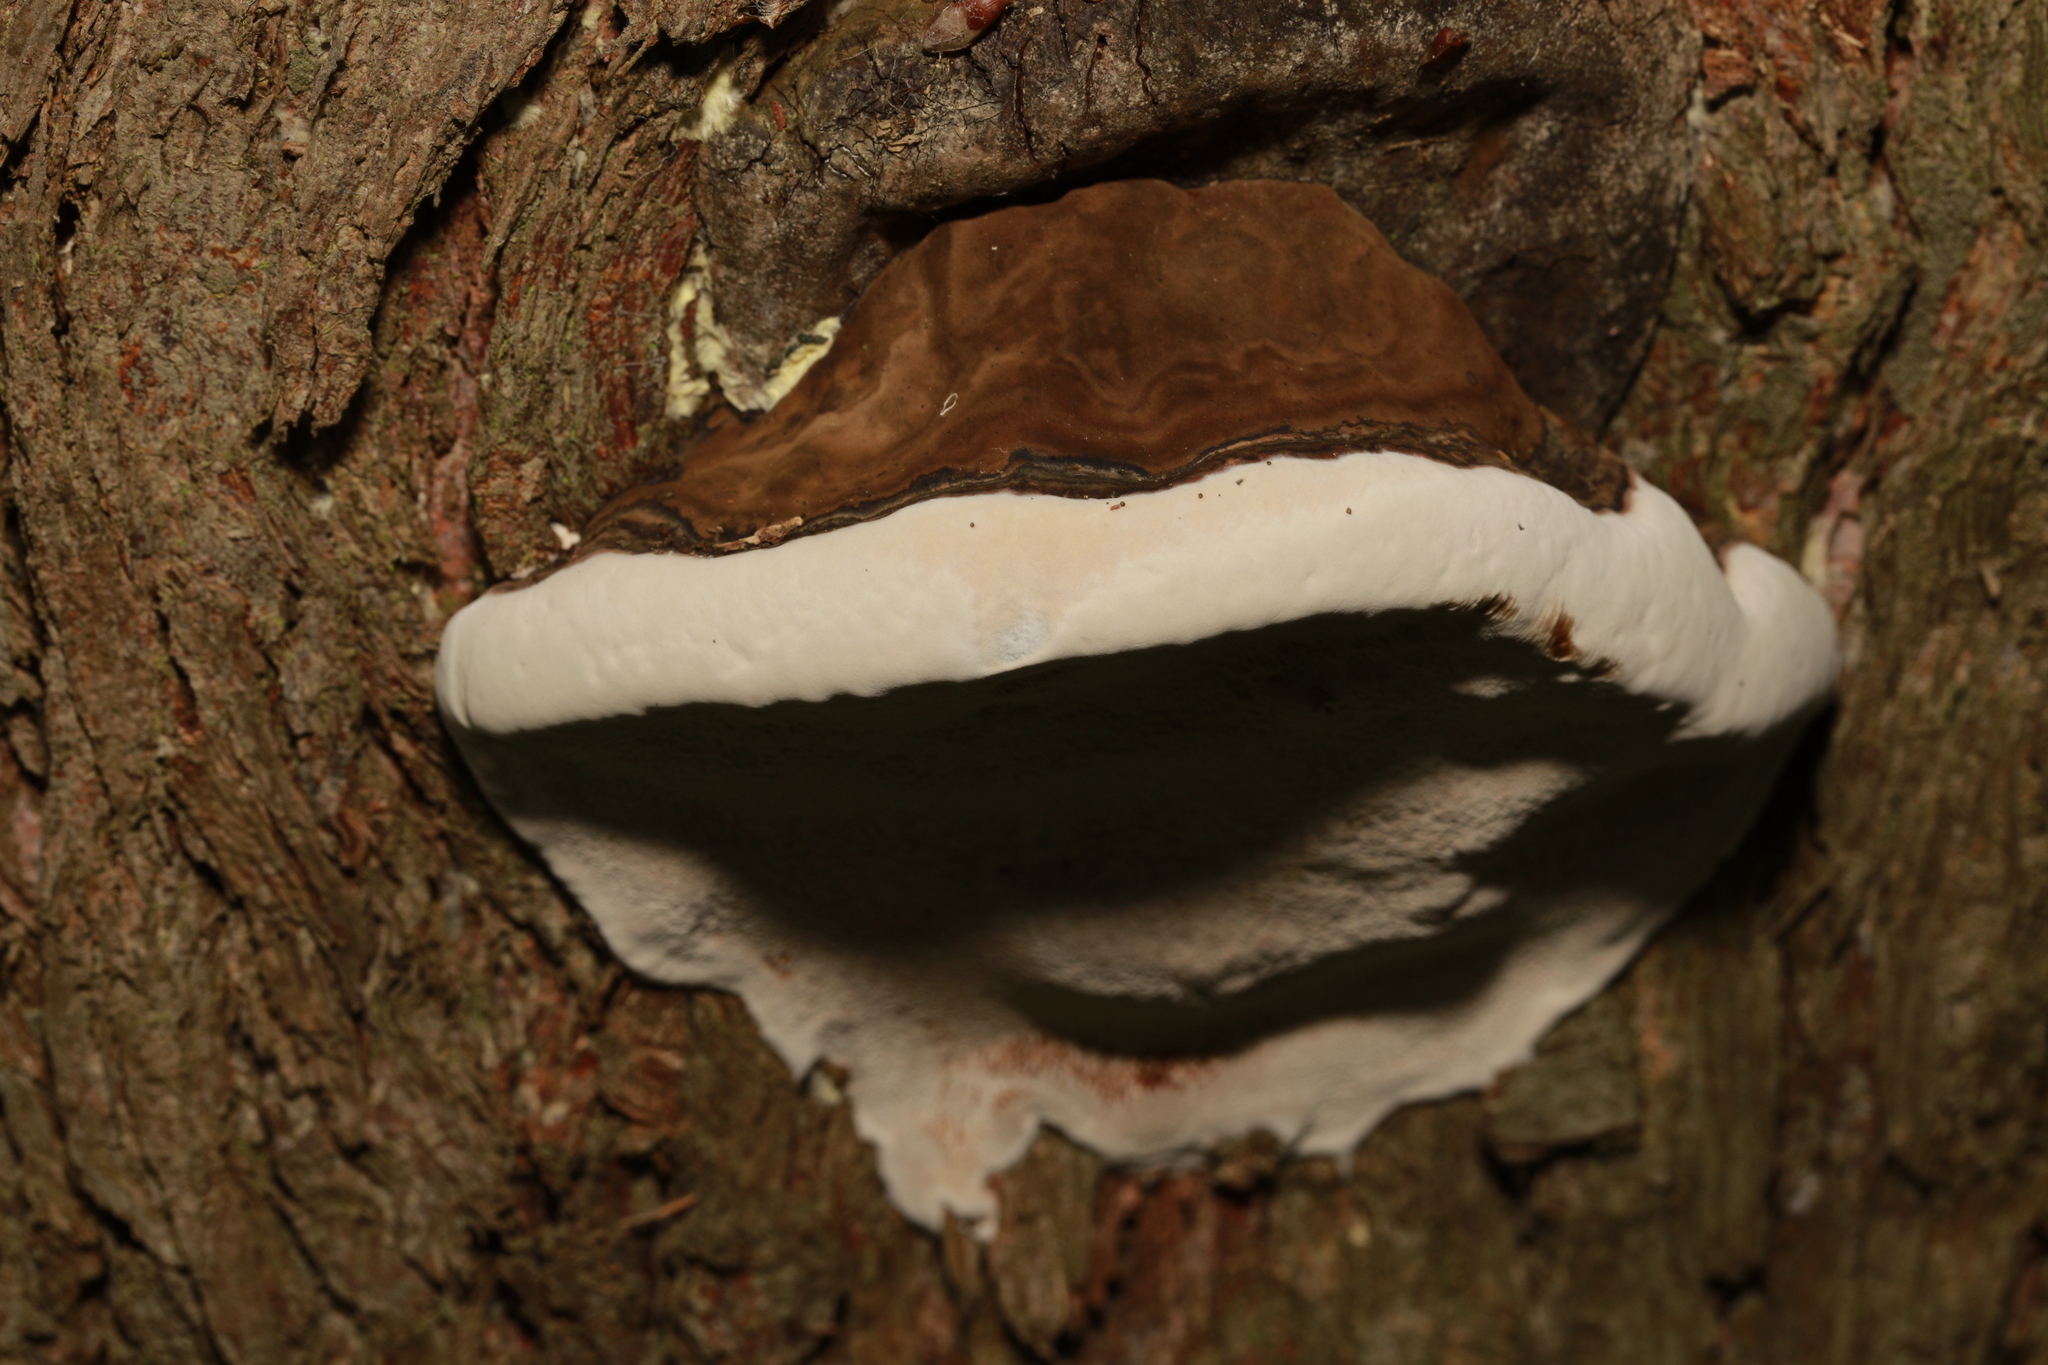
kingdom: Fungi
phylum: Basidiomycota
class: Agaricomycetes
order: Polyporales
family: Polyporaceae
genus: Ganoderma
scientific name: Ganoderma applanatum
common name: Artist's bracket
